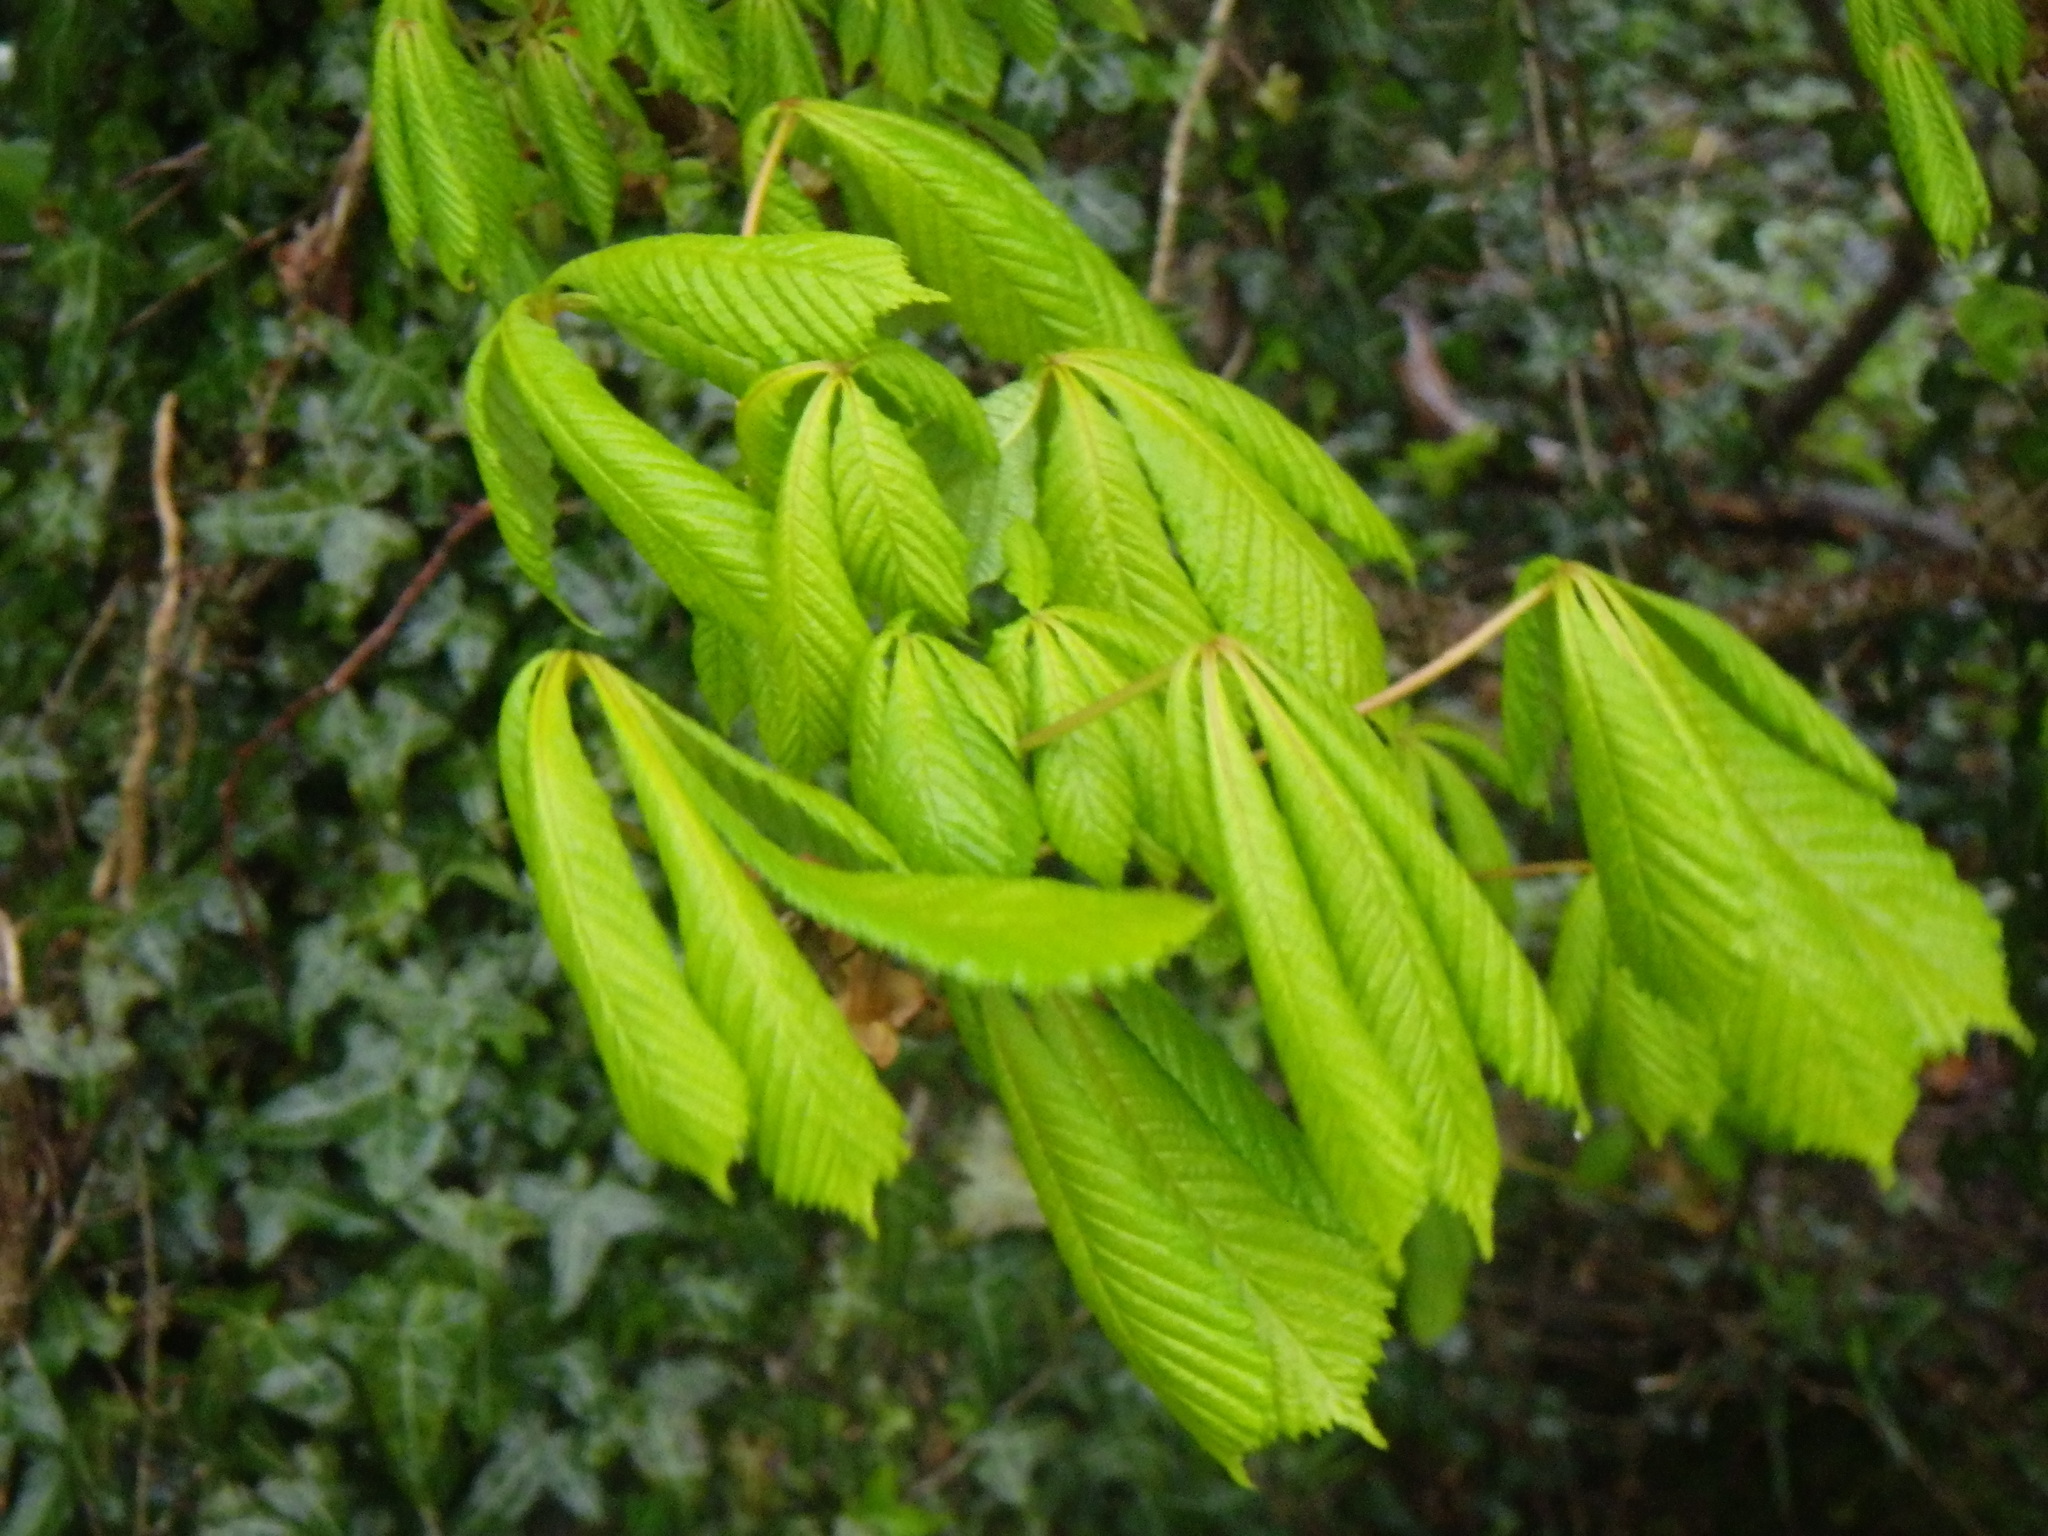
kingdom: Plantae
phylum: Tracheophyta
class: Magnoliopsida
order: Sapindales
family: Sapindaceae
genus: Aesculus
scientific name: Aesculus hippocastanum
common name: Horse-chestnut
